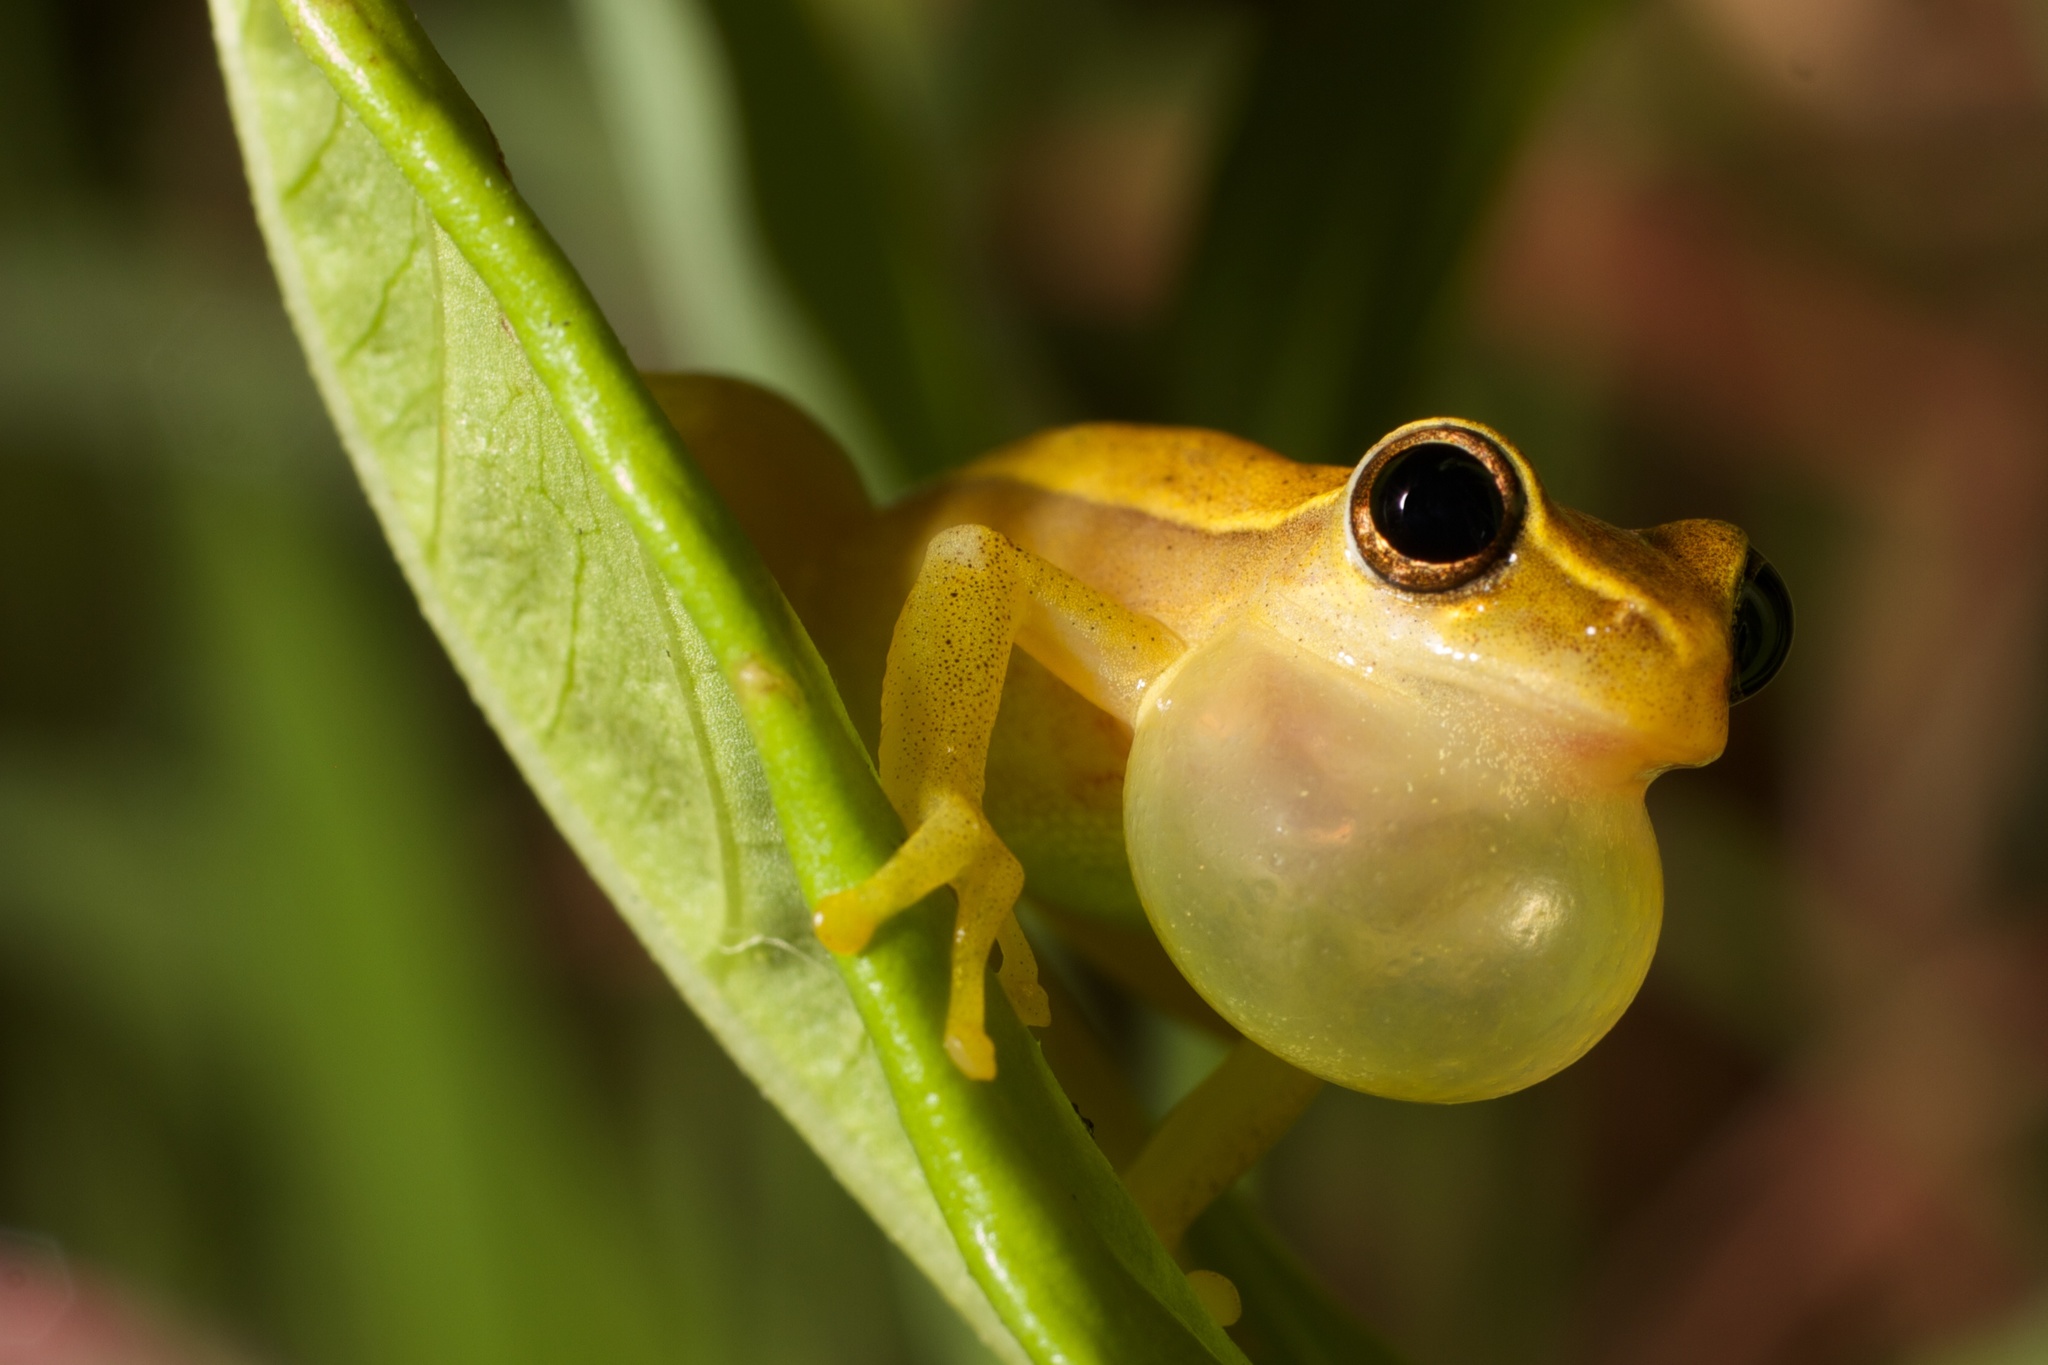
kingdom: Animalia
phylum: Chordata
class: Amphibia
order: Anura
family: Hylidae
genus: Dendropsophus
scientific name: Dendropsophus microcephalus
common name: Small-headed treefrog
